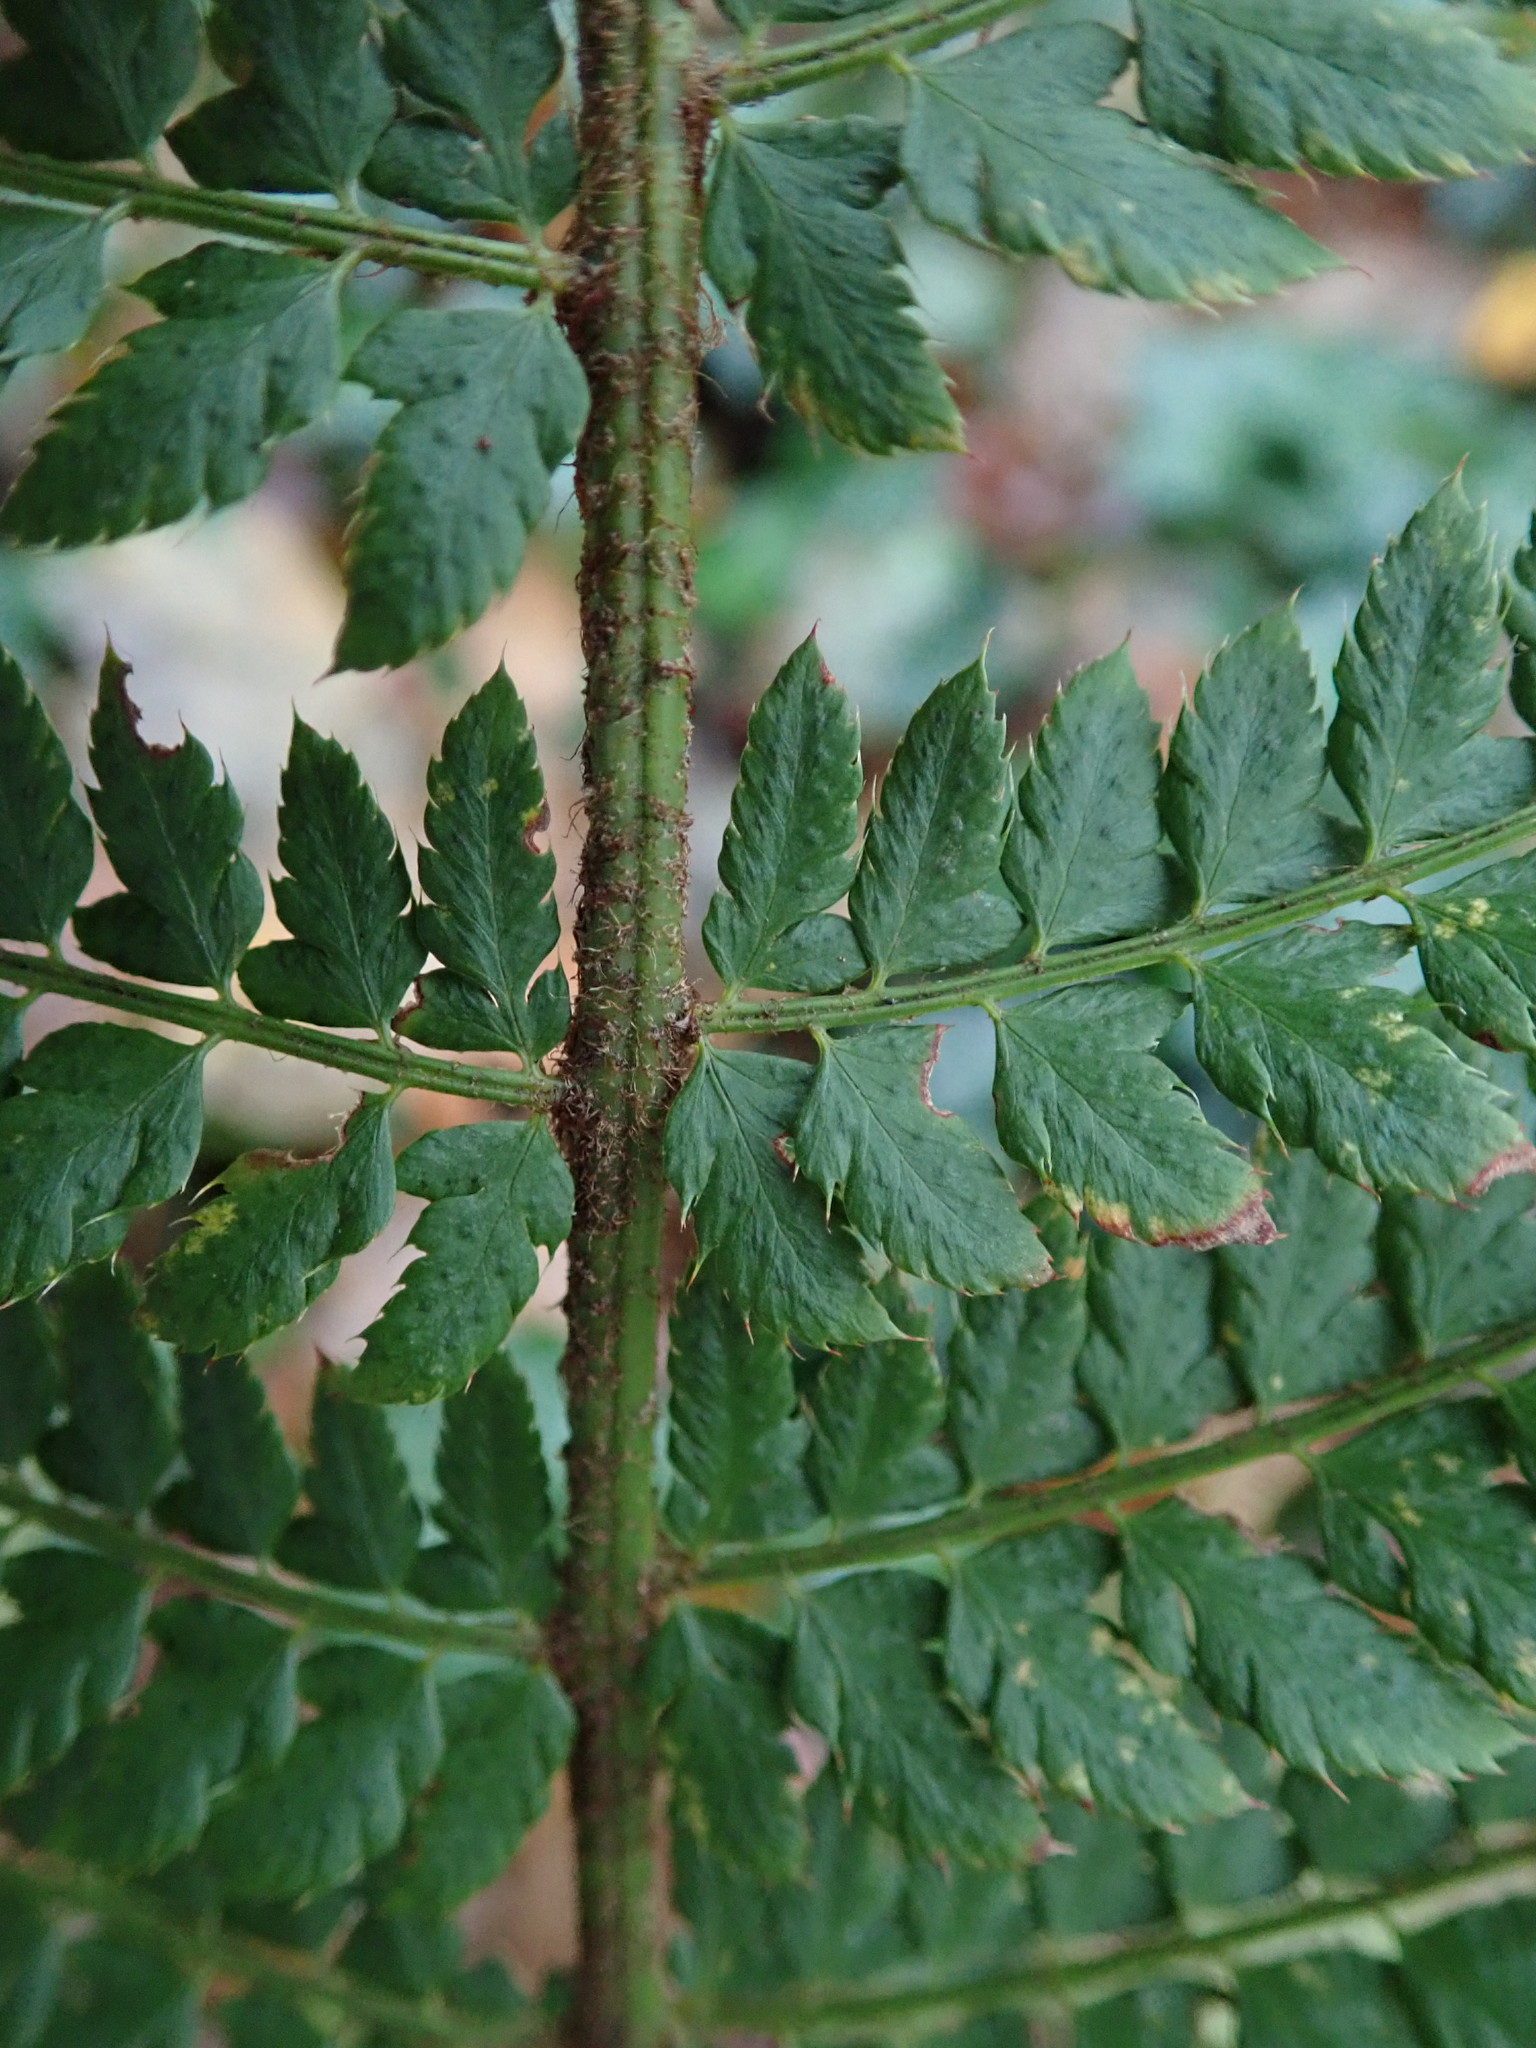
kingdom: Plantae
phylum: Tracheophyta
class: Polypodiopsida
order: Polypodiales
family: Dryopteridaceae
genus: Polystichum
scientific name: Polystichum setiferum
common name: Soft shield-fern
